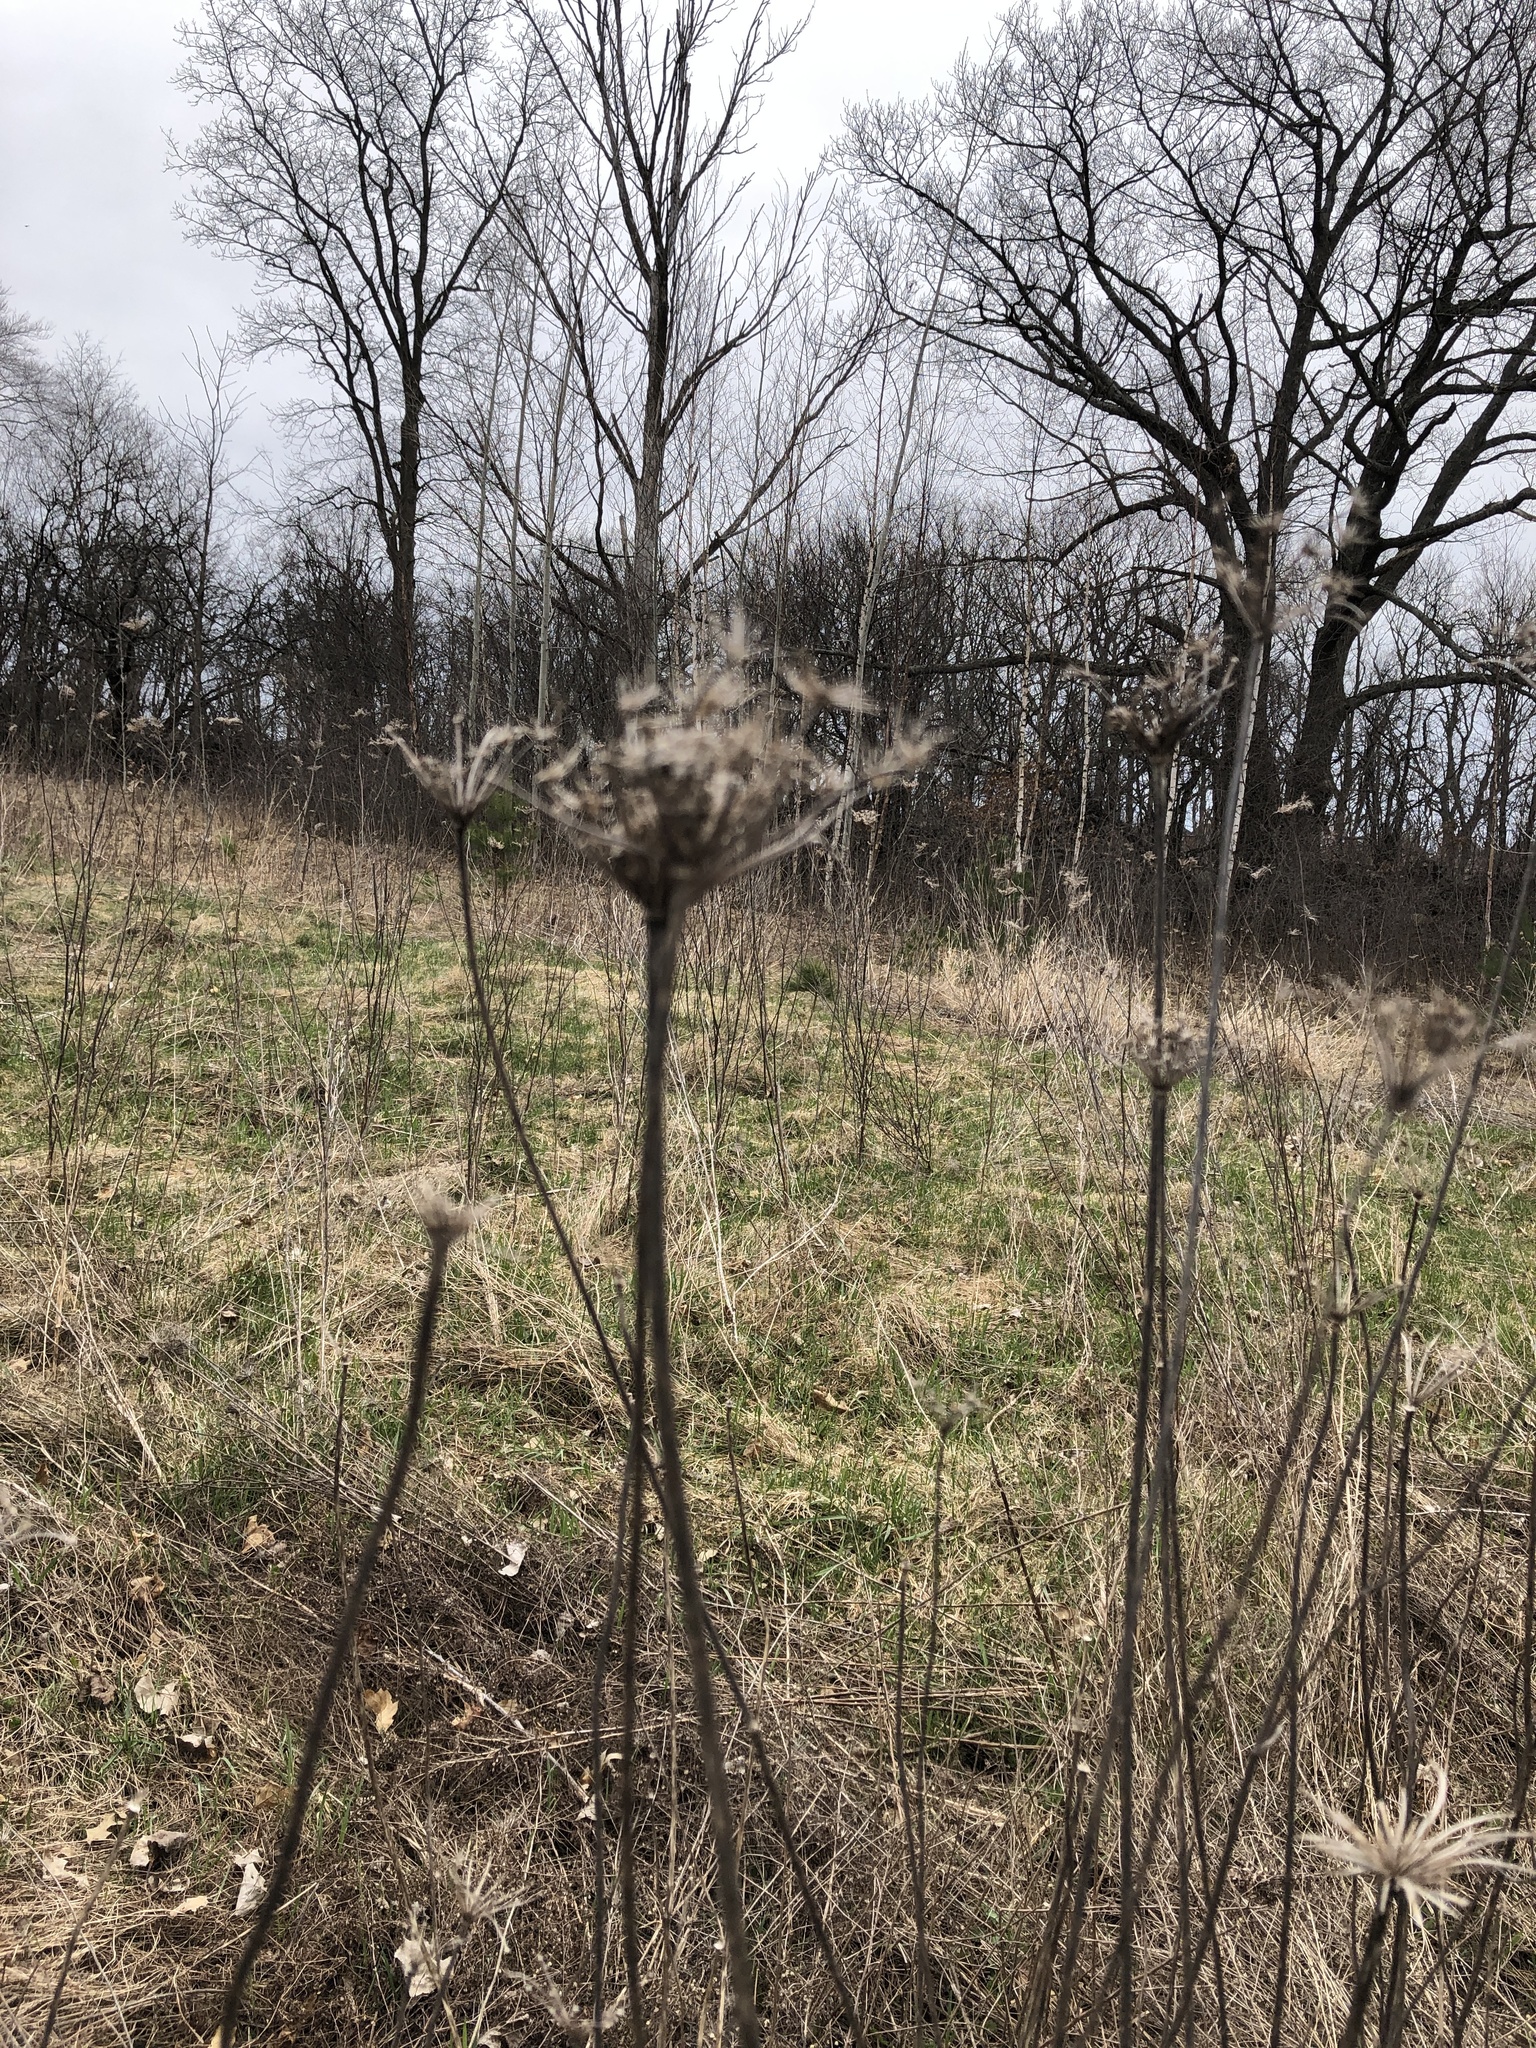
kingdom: Plantae
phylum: Tracheophyta
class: Magnoliopsida
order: Apiales
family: Apiaceae
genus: Daucus
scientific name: Daucus carota
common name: Wild carrot
